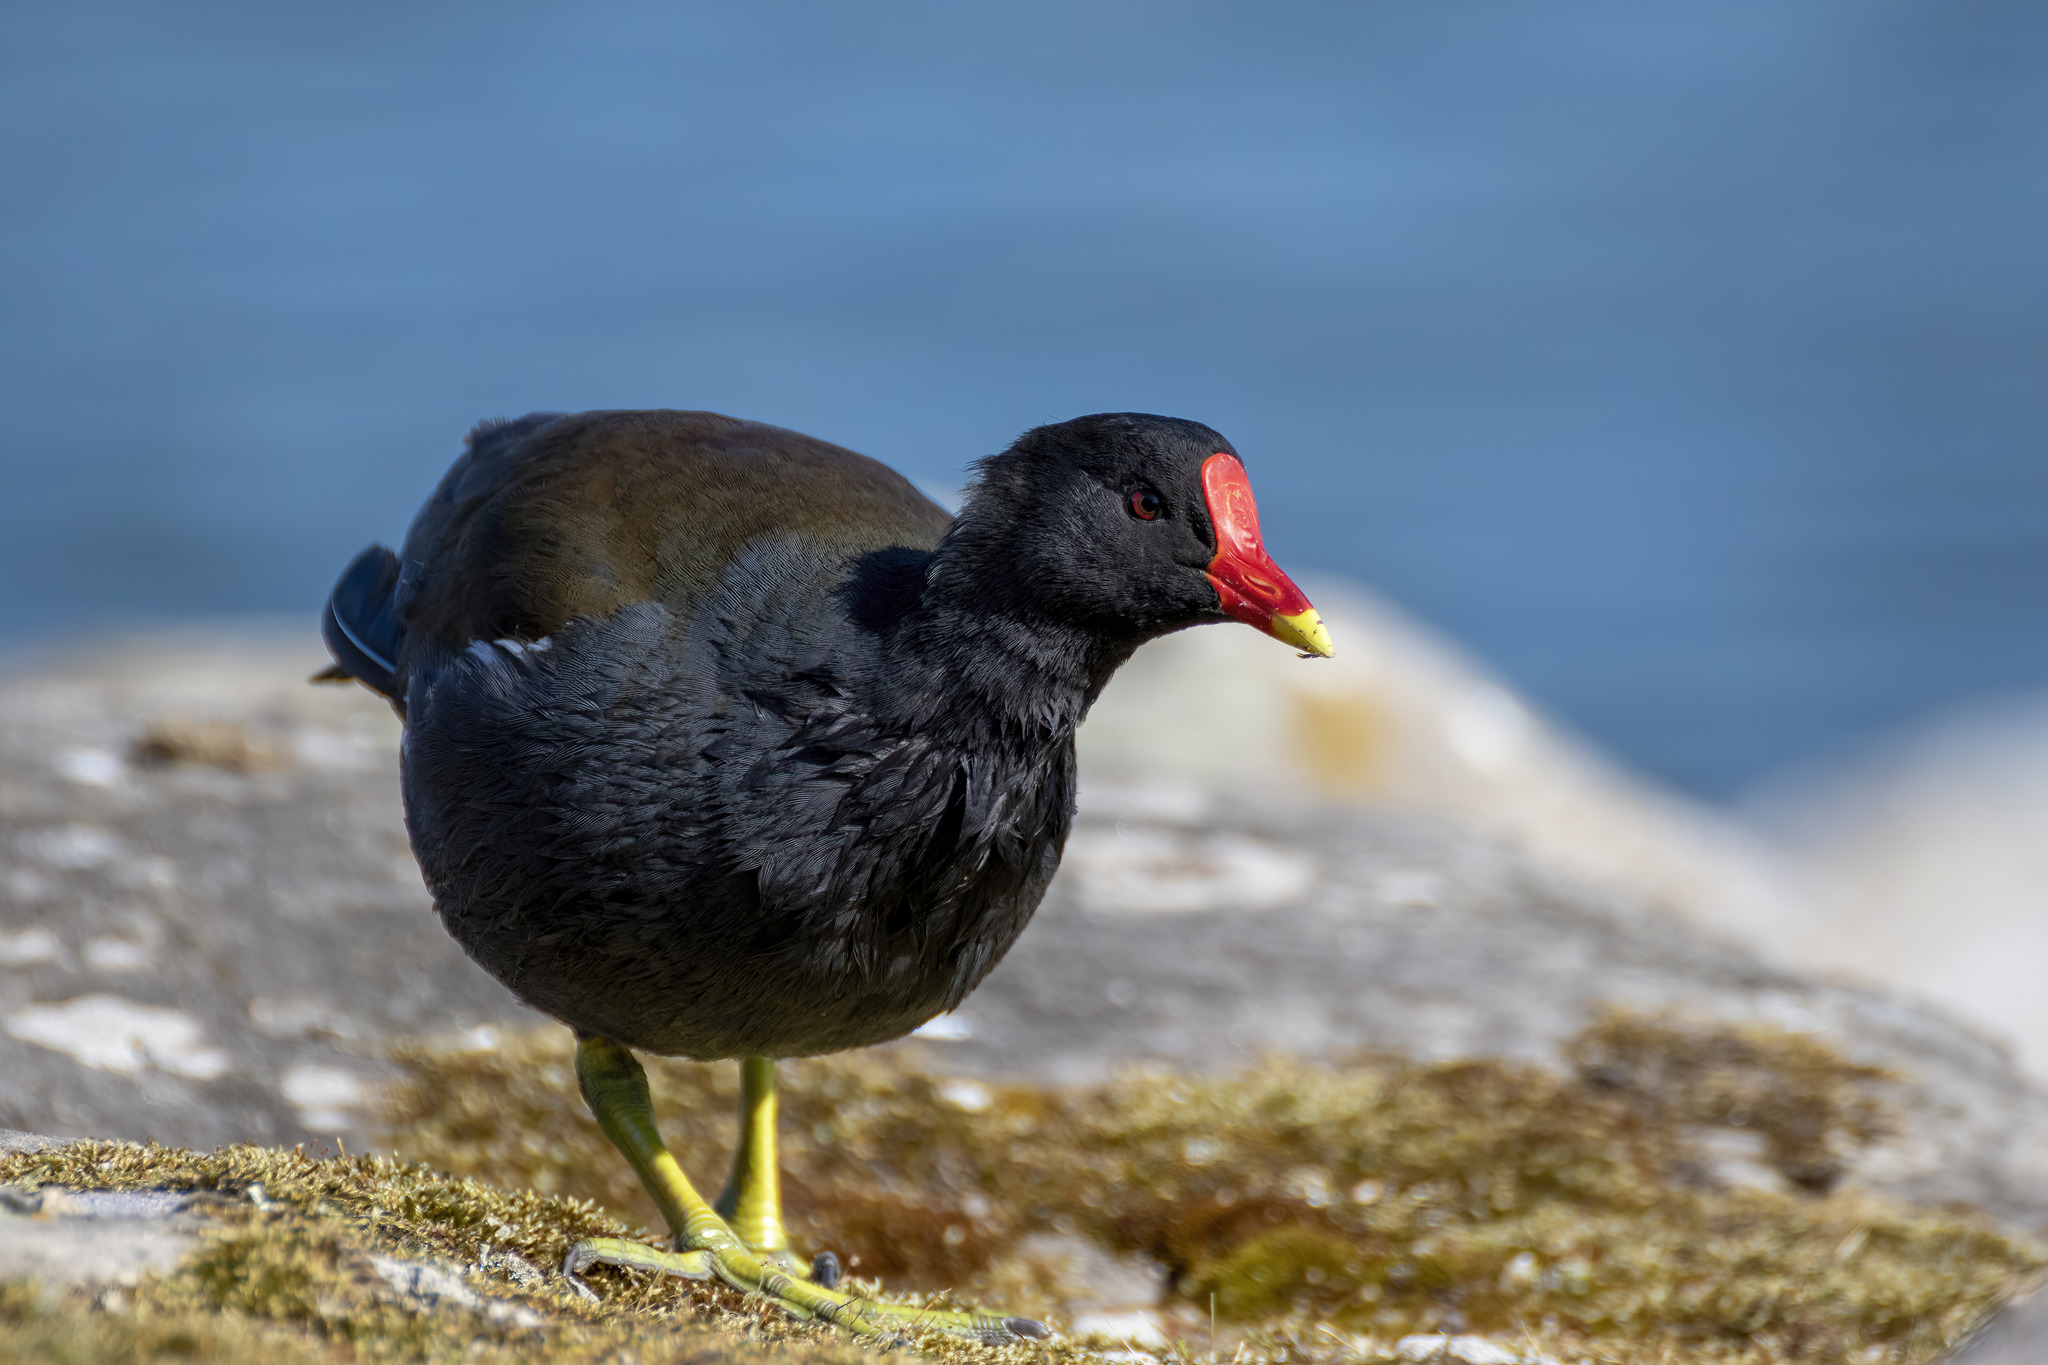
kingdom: Animalia
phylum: Chordata
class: Aves
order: Gruiformes
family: Rallidae
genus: Gallinula
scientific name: Gallinula chloropus
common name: Common moorhen
